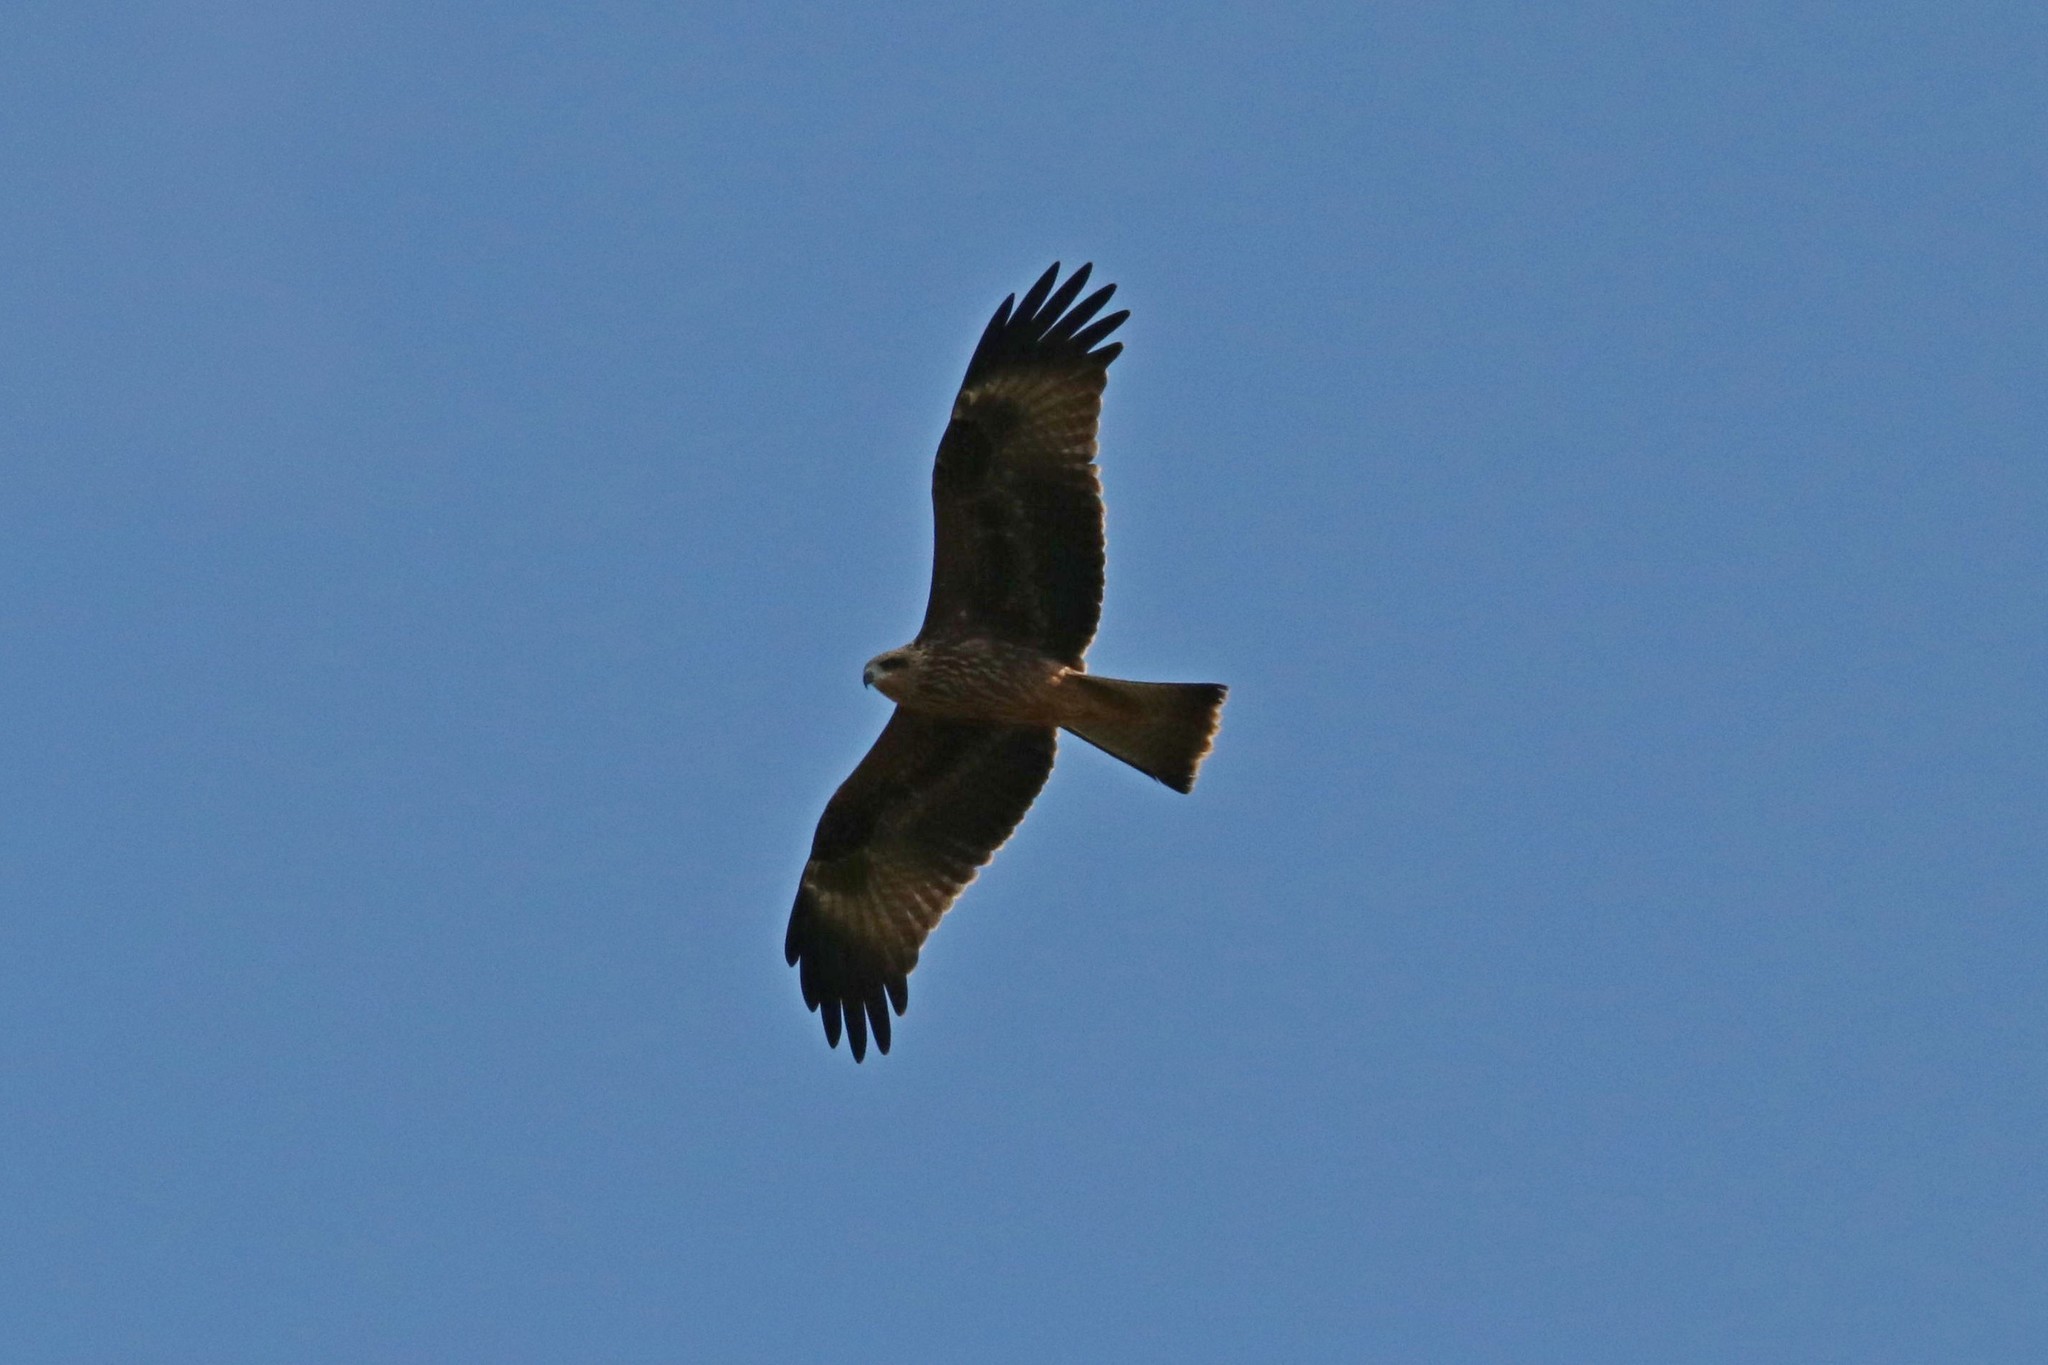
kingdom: Animalia
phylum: Chordata
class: Aves
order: Accipitriformes
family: Accipitridae
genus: Milvus
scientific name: Milvus migrans
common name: Black kite
